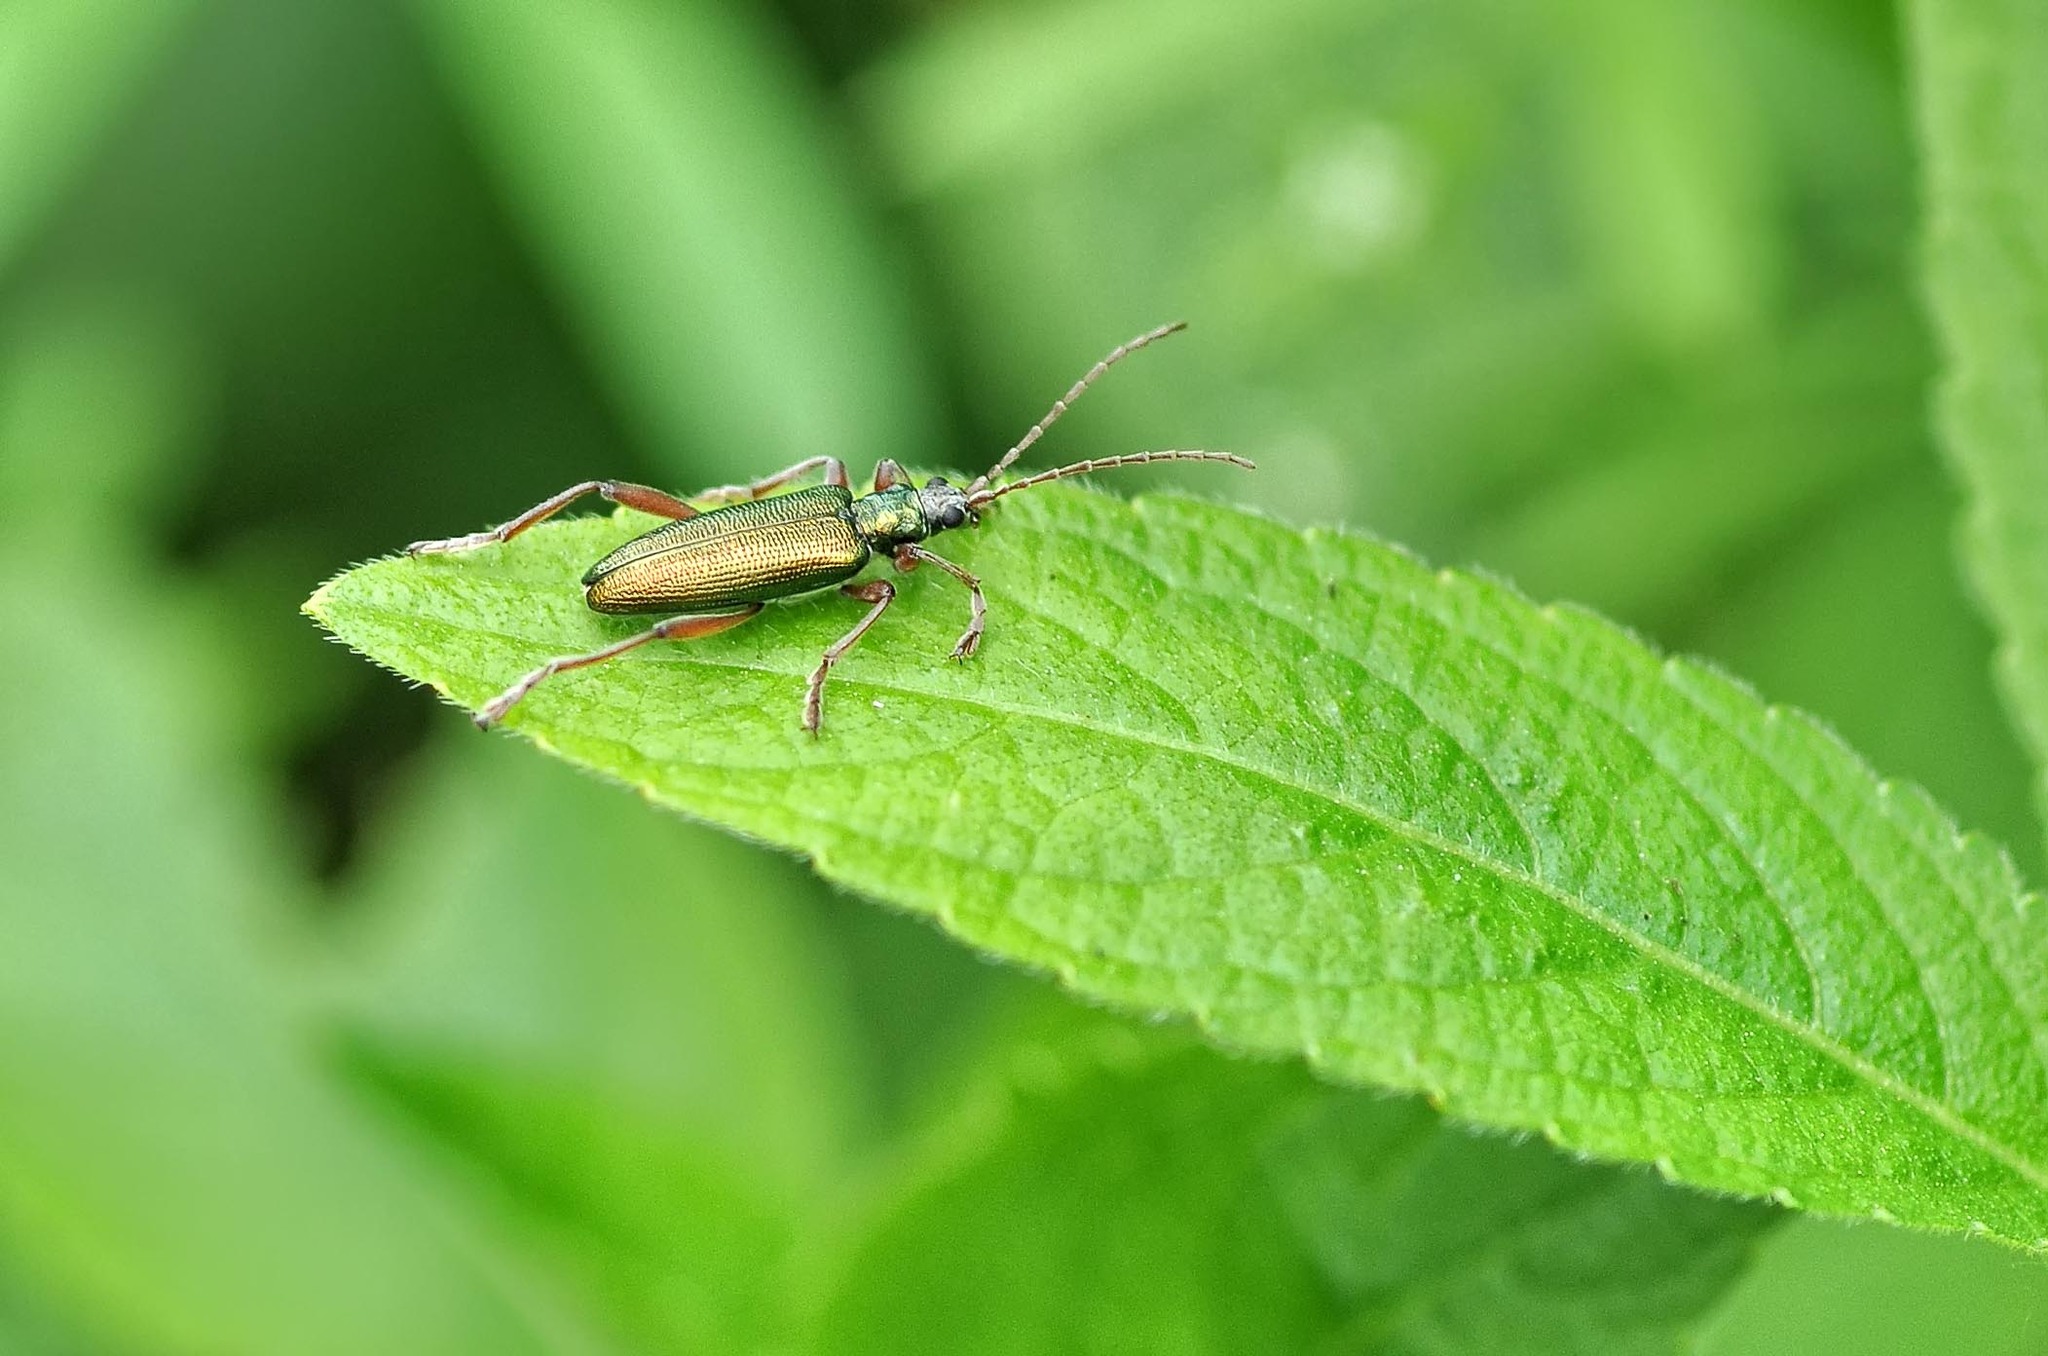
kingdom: Animalia
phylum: Arthropoda
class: Insecta
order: Coleoptera
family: Chrysomelidae
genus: Donacia
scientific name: Donacia clavipes
